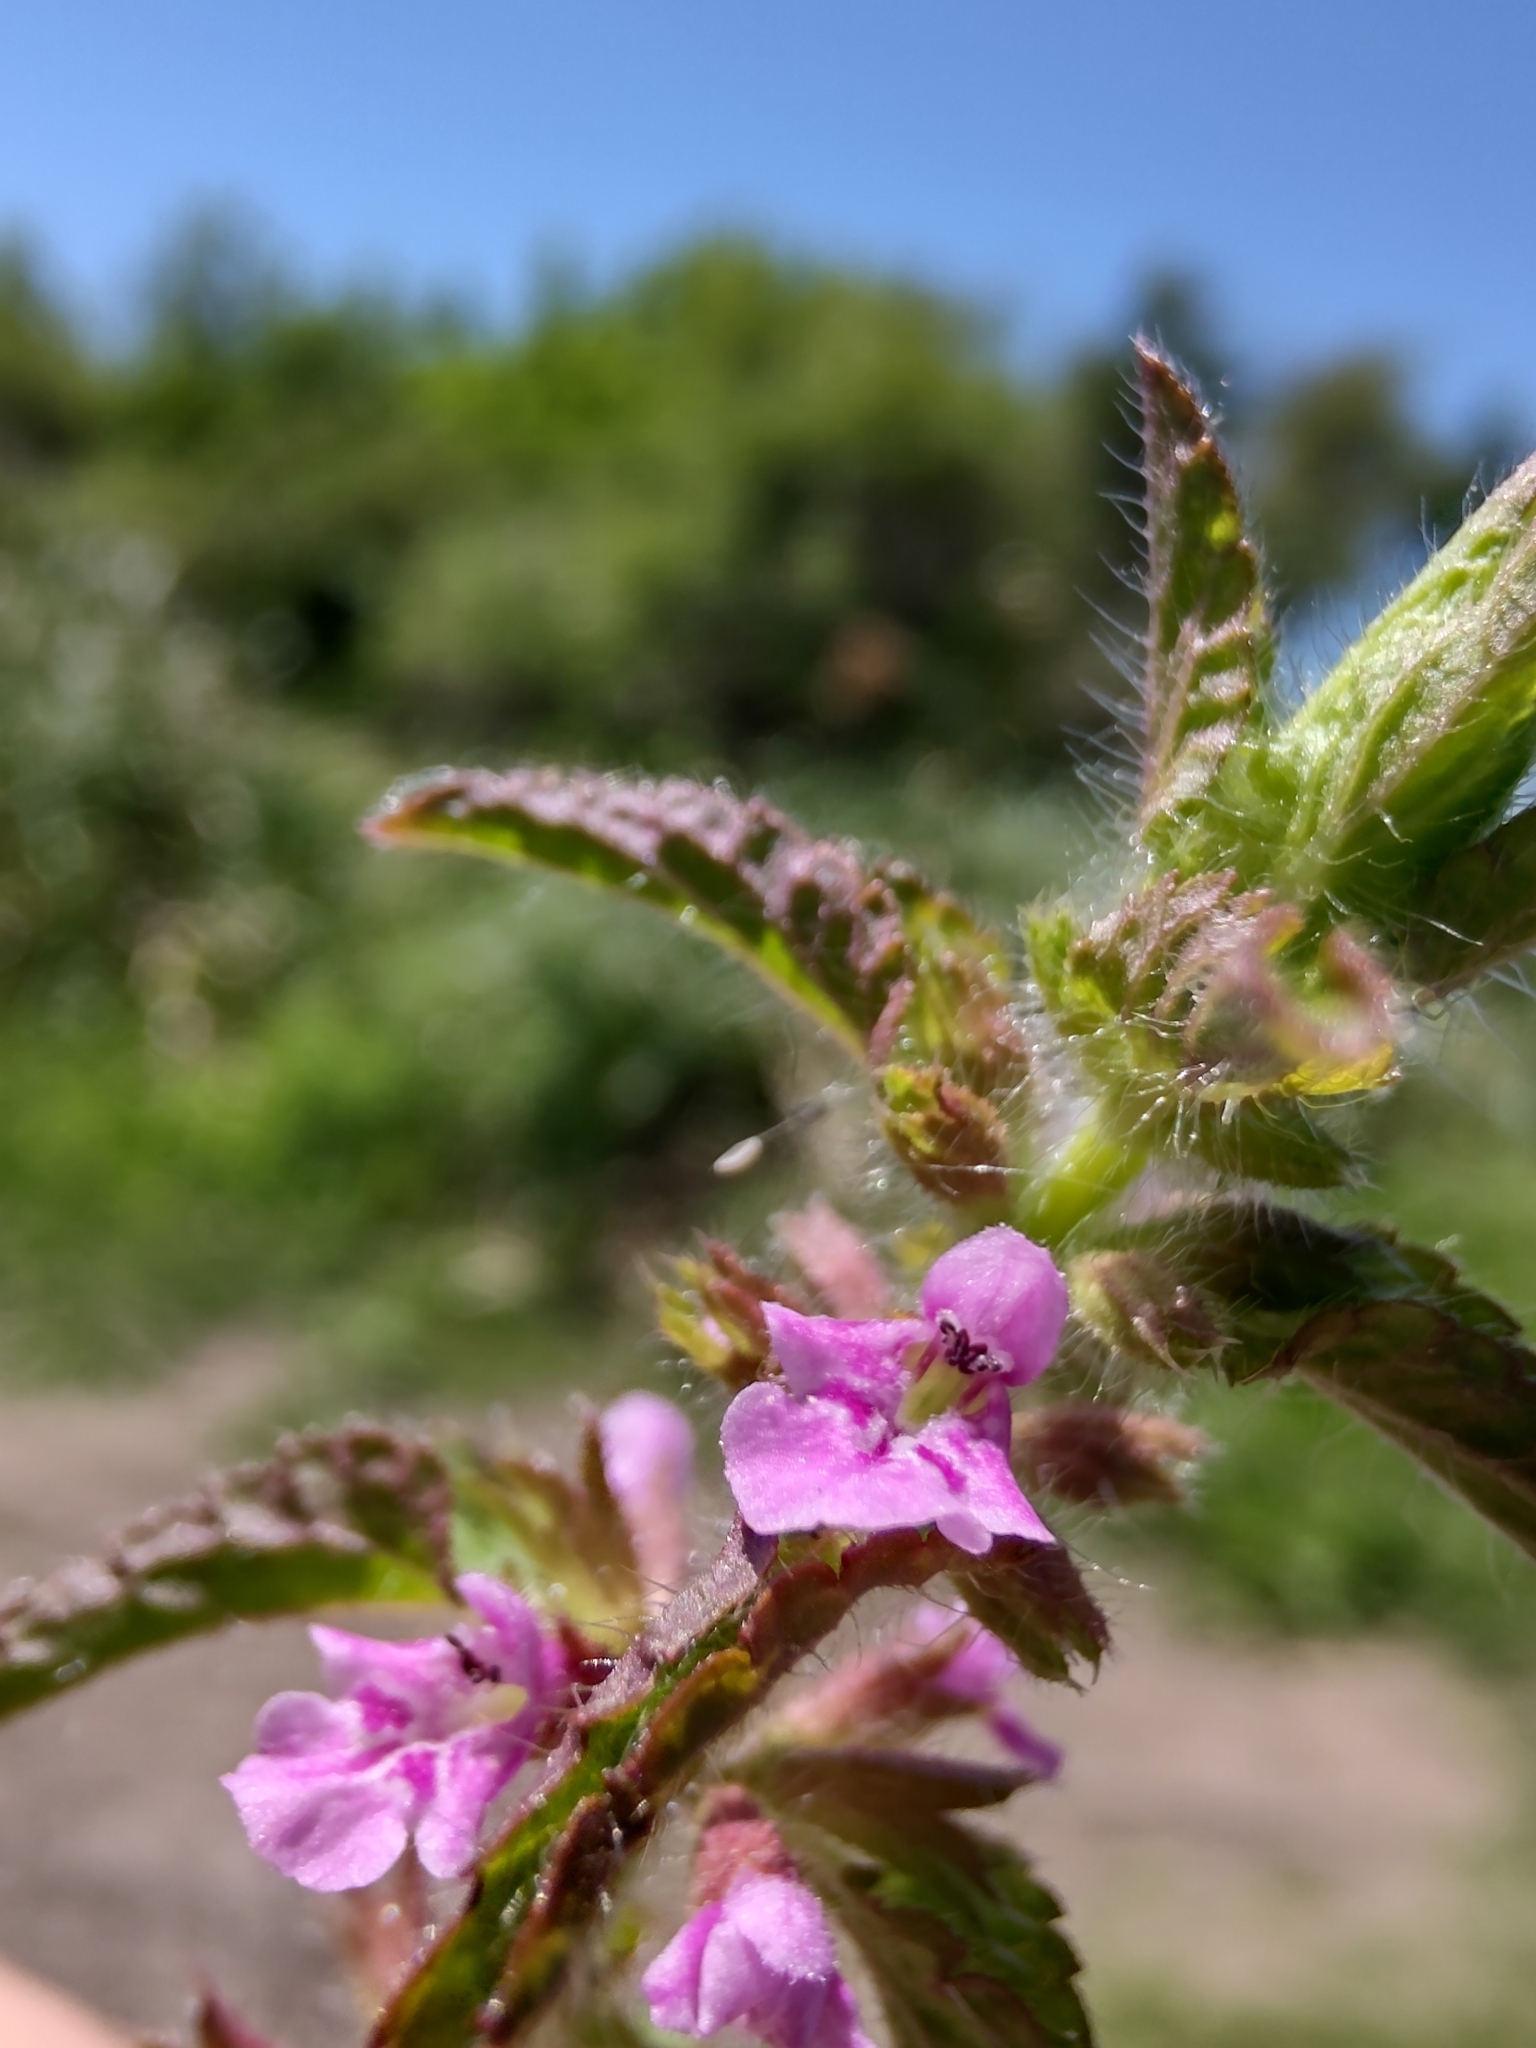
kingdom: Plantae
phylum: Tracheophyta
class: Magnoliopsida
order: Lamiales
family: Lamiaceae
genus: Stachys
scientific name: Stachys gilliesii
